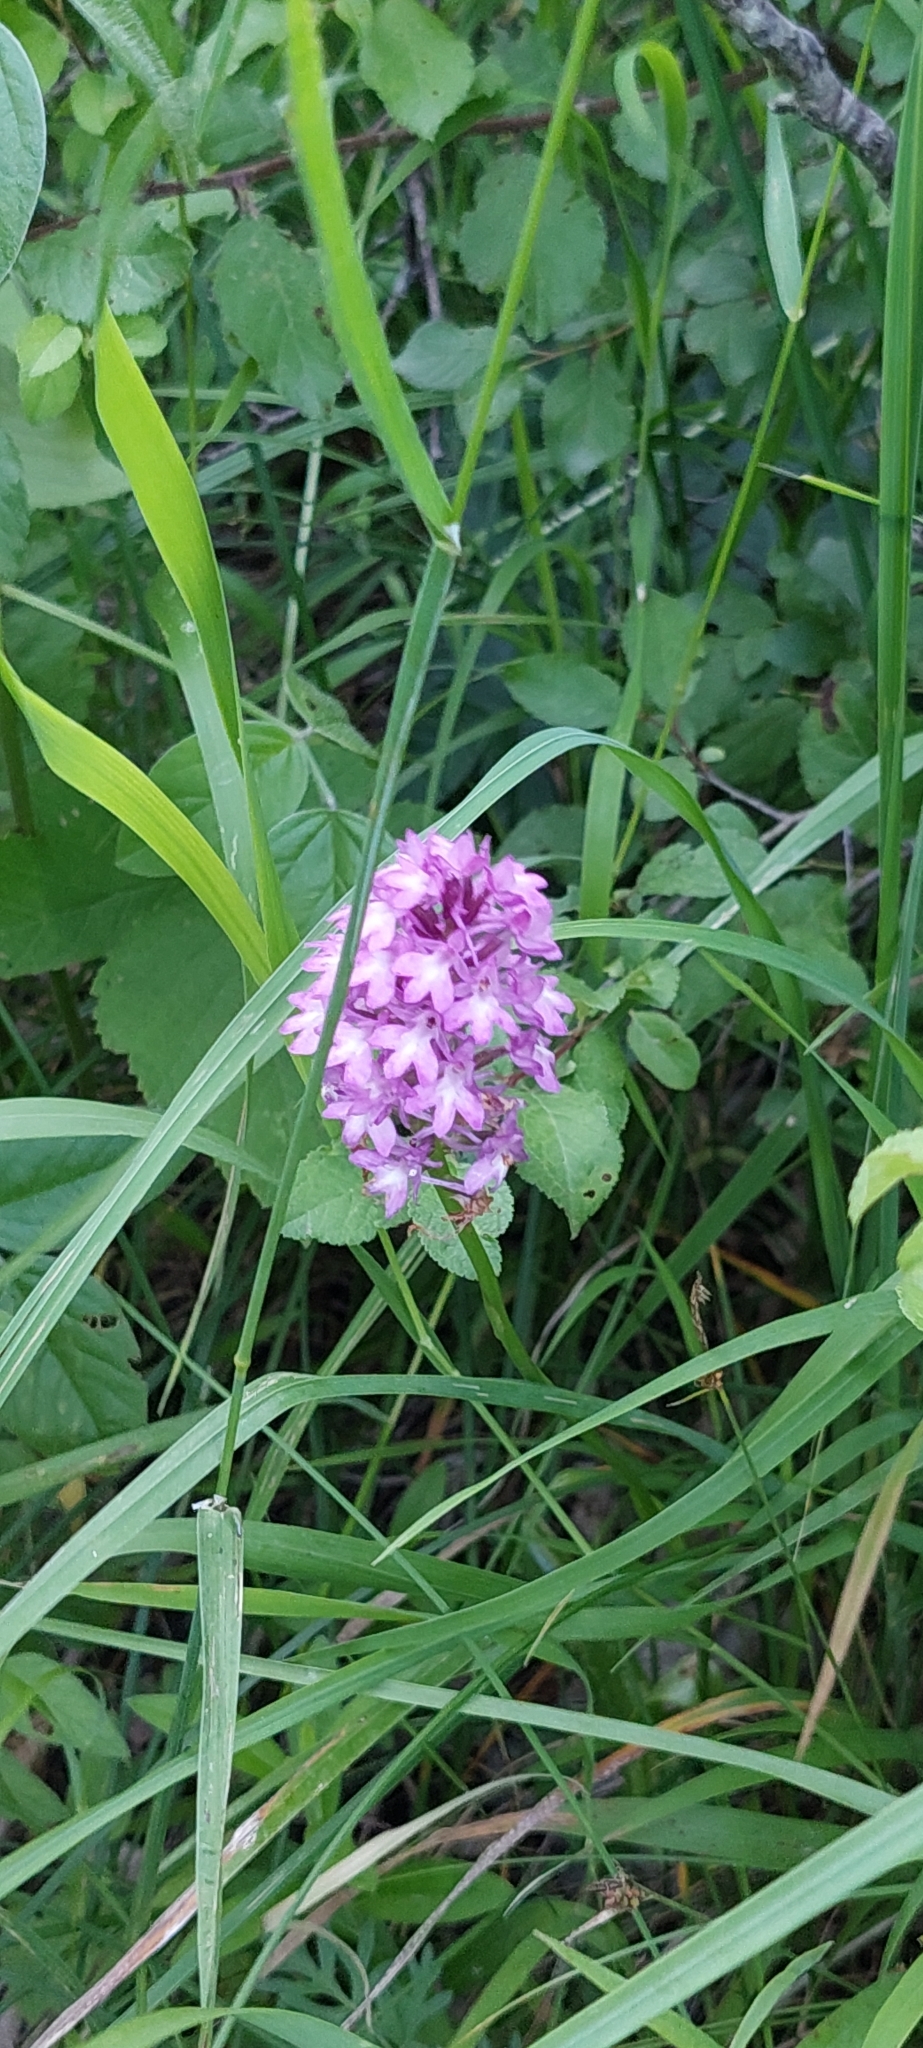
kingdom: Plantae
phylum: Tracheophyta
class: Liliopsida
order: Asparagales
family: Orchidaceae
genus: Anacamptis
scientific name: Anacamptis pyramidalis
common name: Pyramidal orchid
